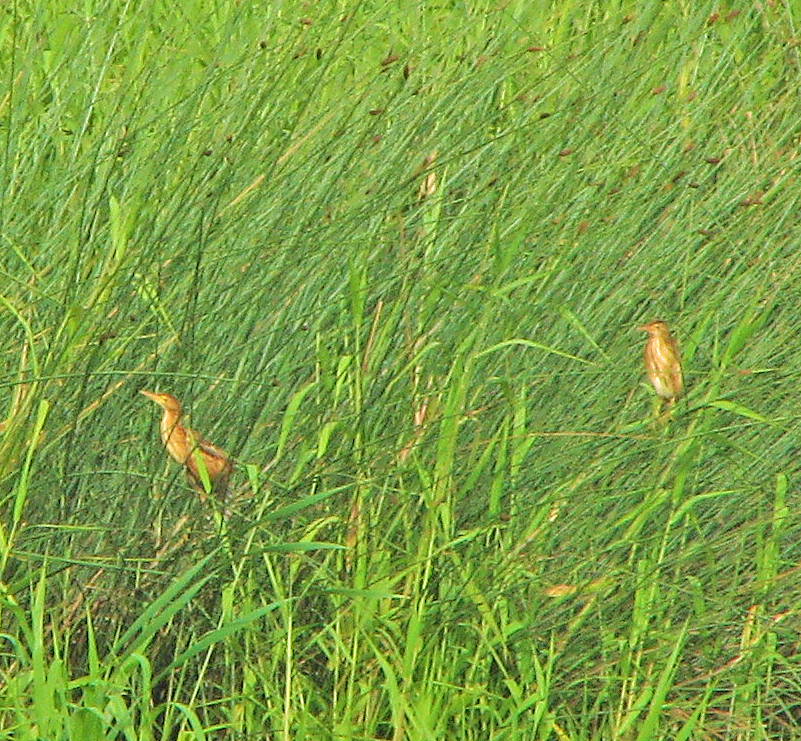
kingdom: Animalia
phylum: Chordata
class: Aves
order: Pelecaniformes
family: Ardeidae
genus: Ixobrychus
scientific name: Ixobrychus dubius
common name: Black-backed bittern
